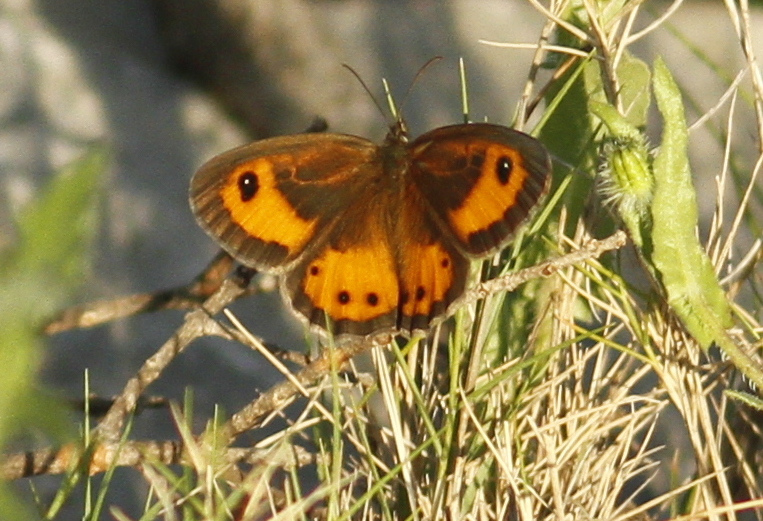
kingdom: Animalia
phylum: Arthropoda
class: Insecta
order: Lepidoptera
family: Nymphalidae
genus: Pyronia
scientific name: Pyronia bathseba
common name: Spanish gatekeeper
